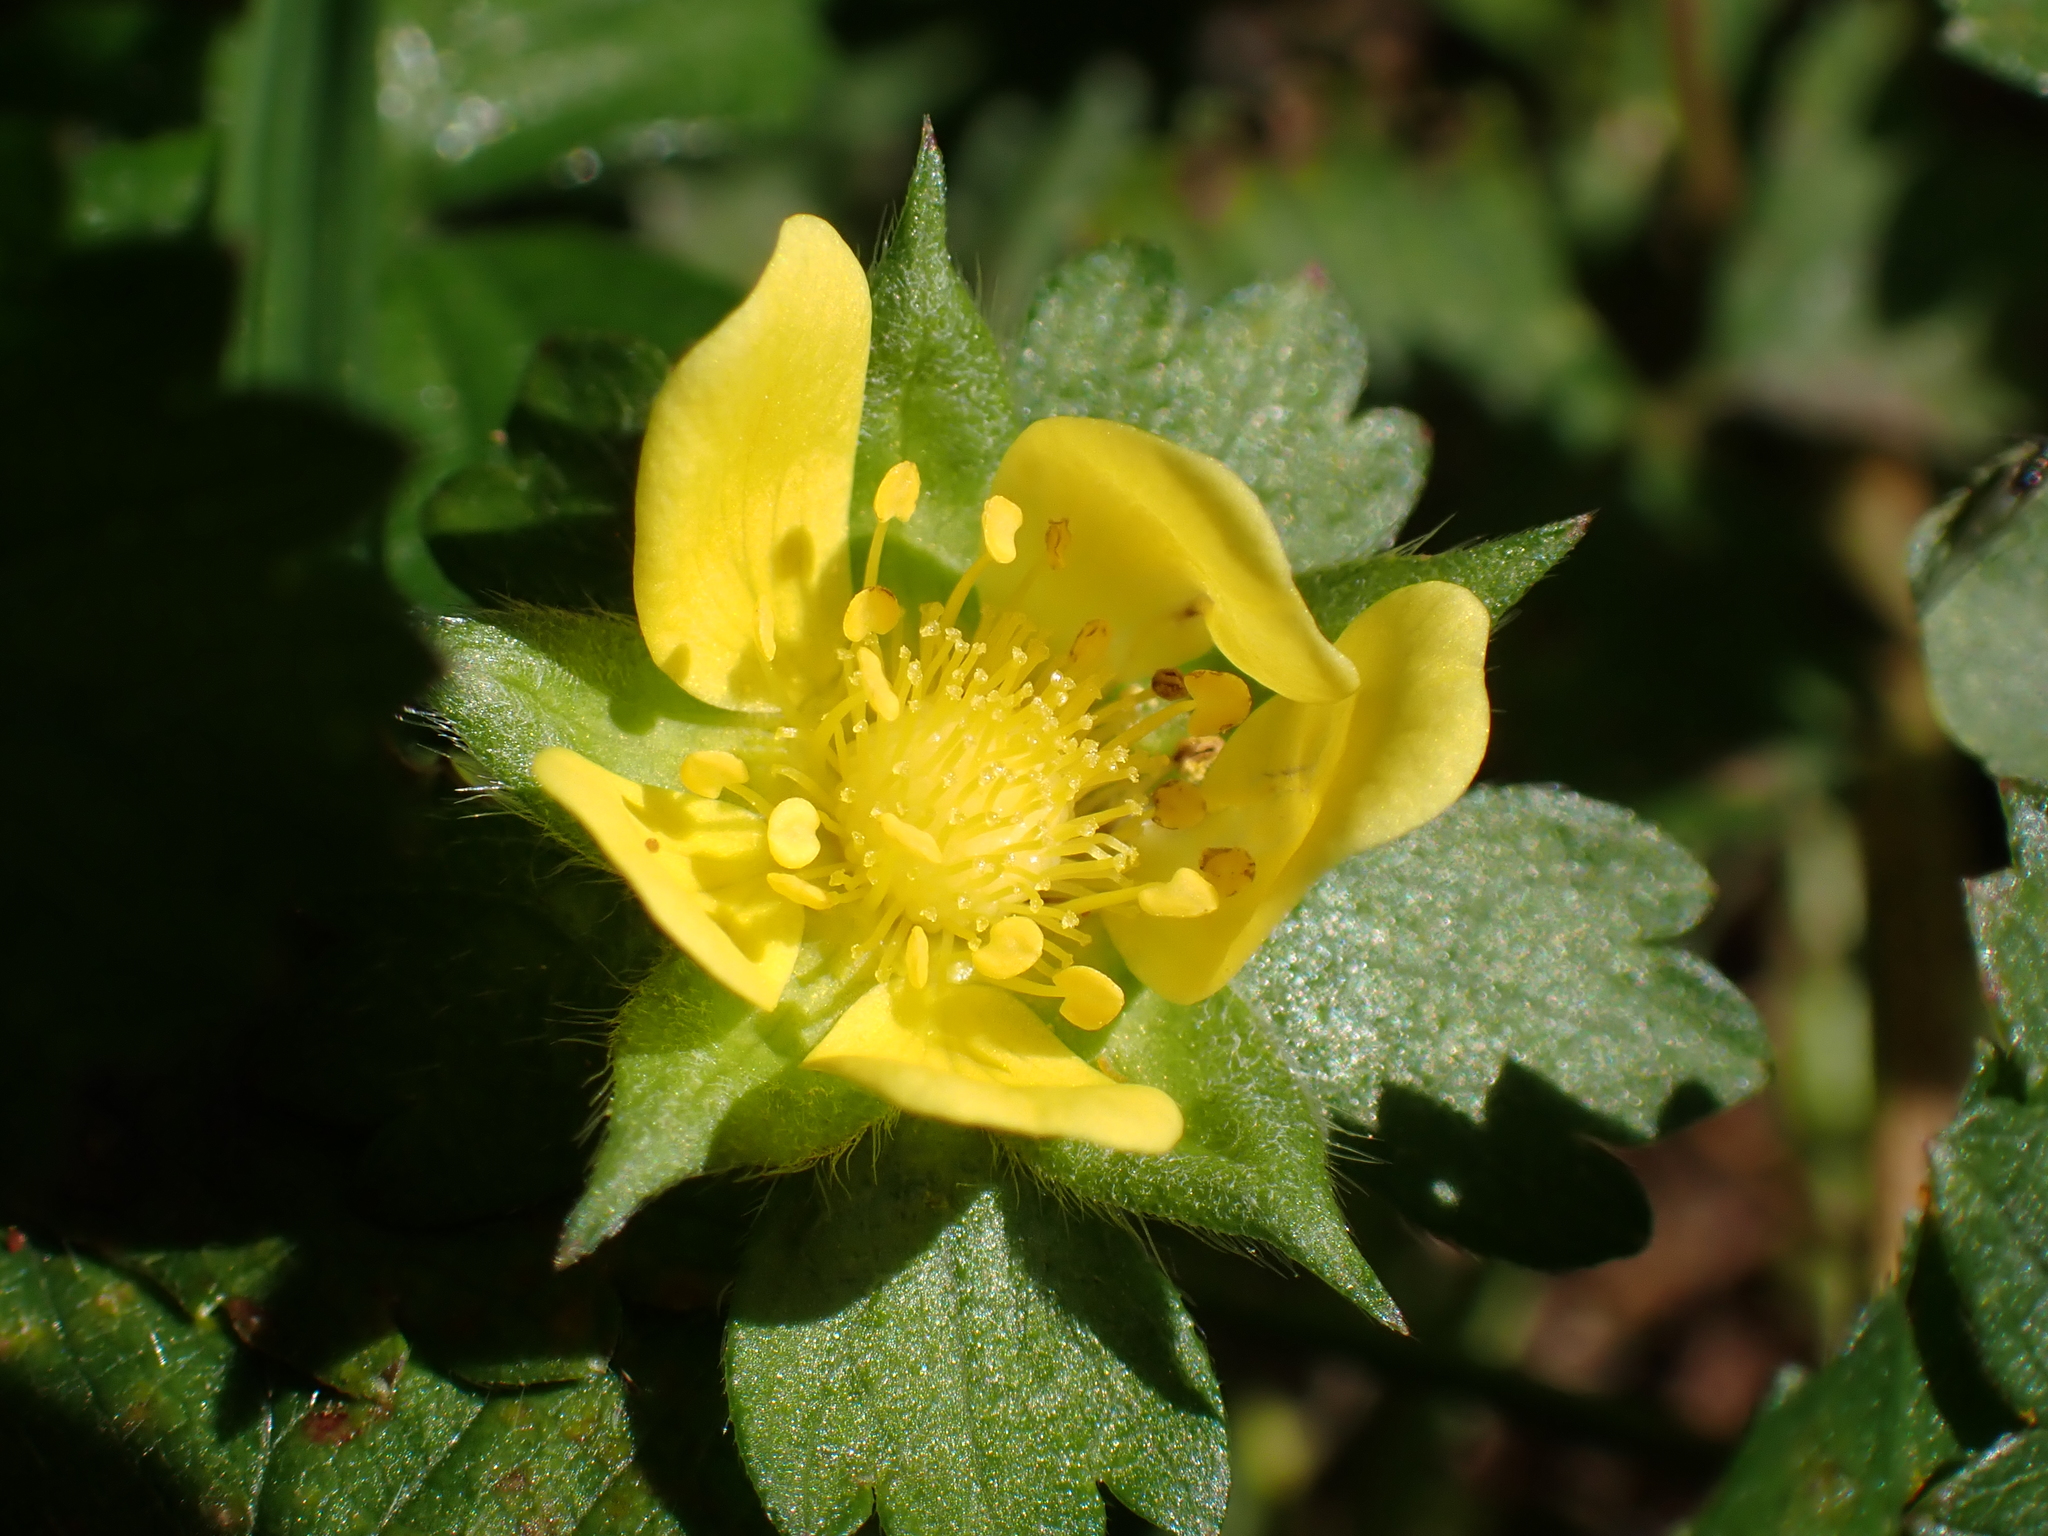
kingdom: Plantae
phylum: Tracheophyta
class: Magnoliopsida
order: Rosales
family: Rosaceae
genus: Potentilla
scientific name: Potentilla indica
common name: Yellow-flowered strawberry
